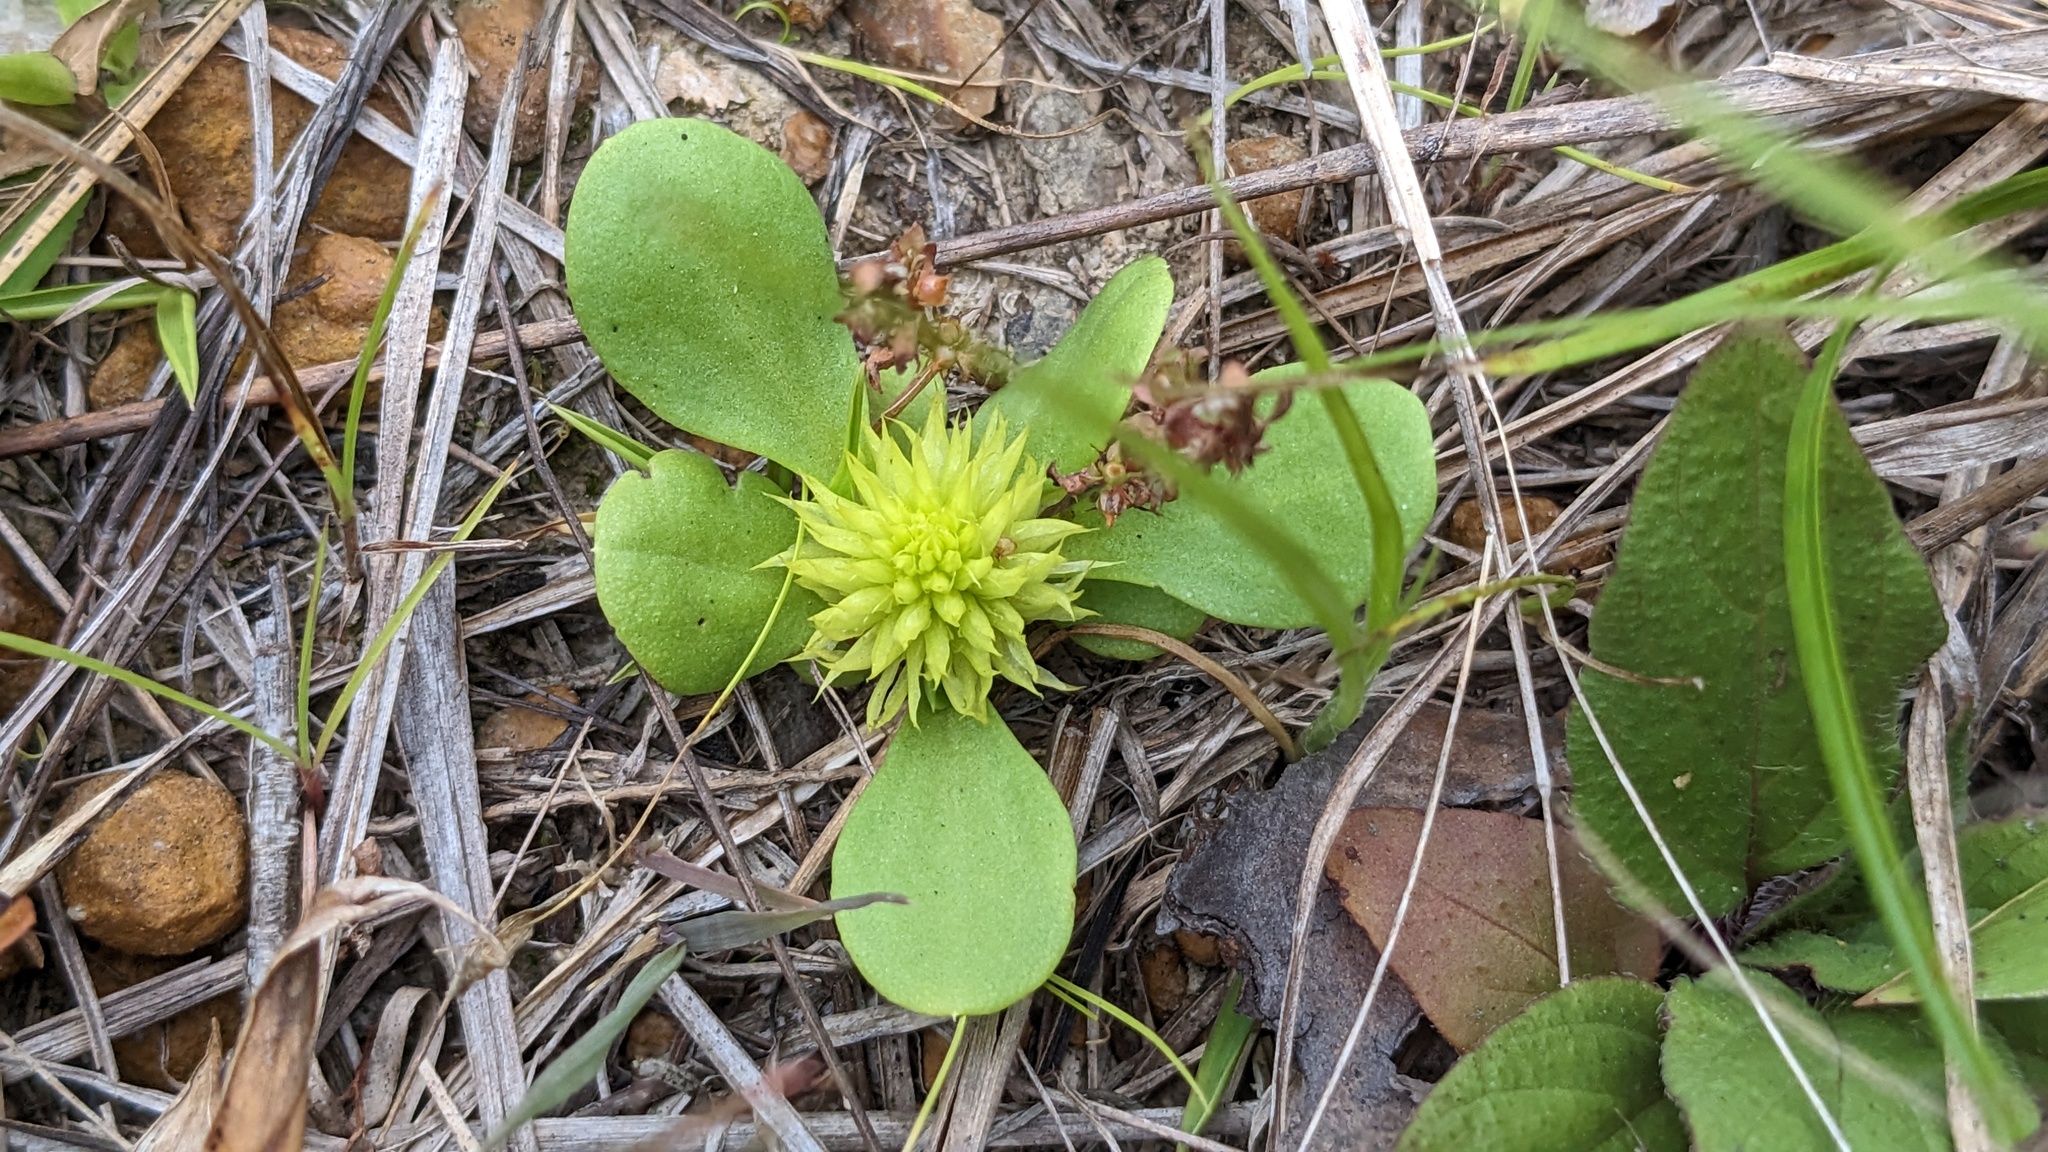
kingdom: Plantae
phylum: Tracheophyta
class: Magnoliopsida
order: Fabales
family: Polygalaceae
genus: Polygala
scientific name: Polygala nana
